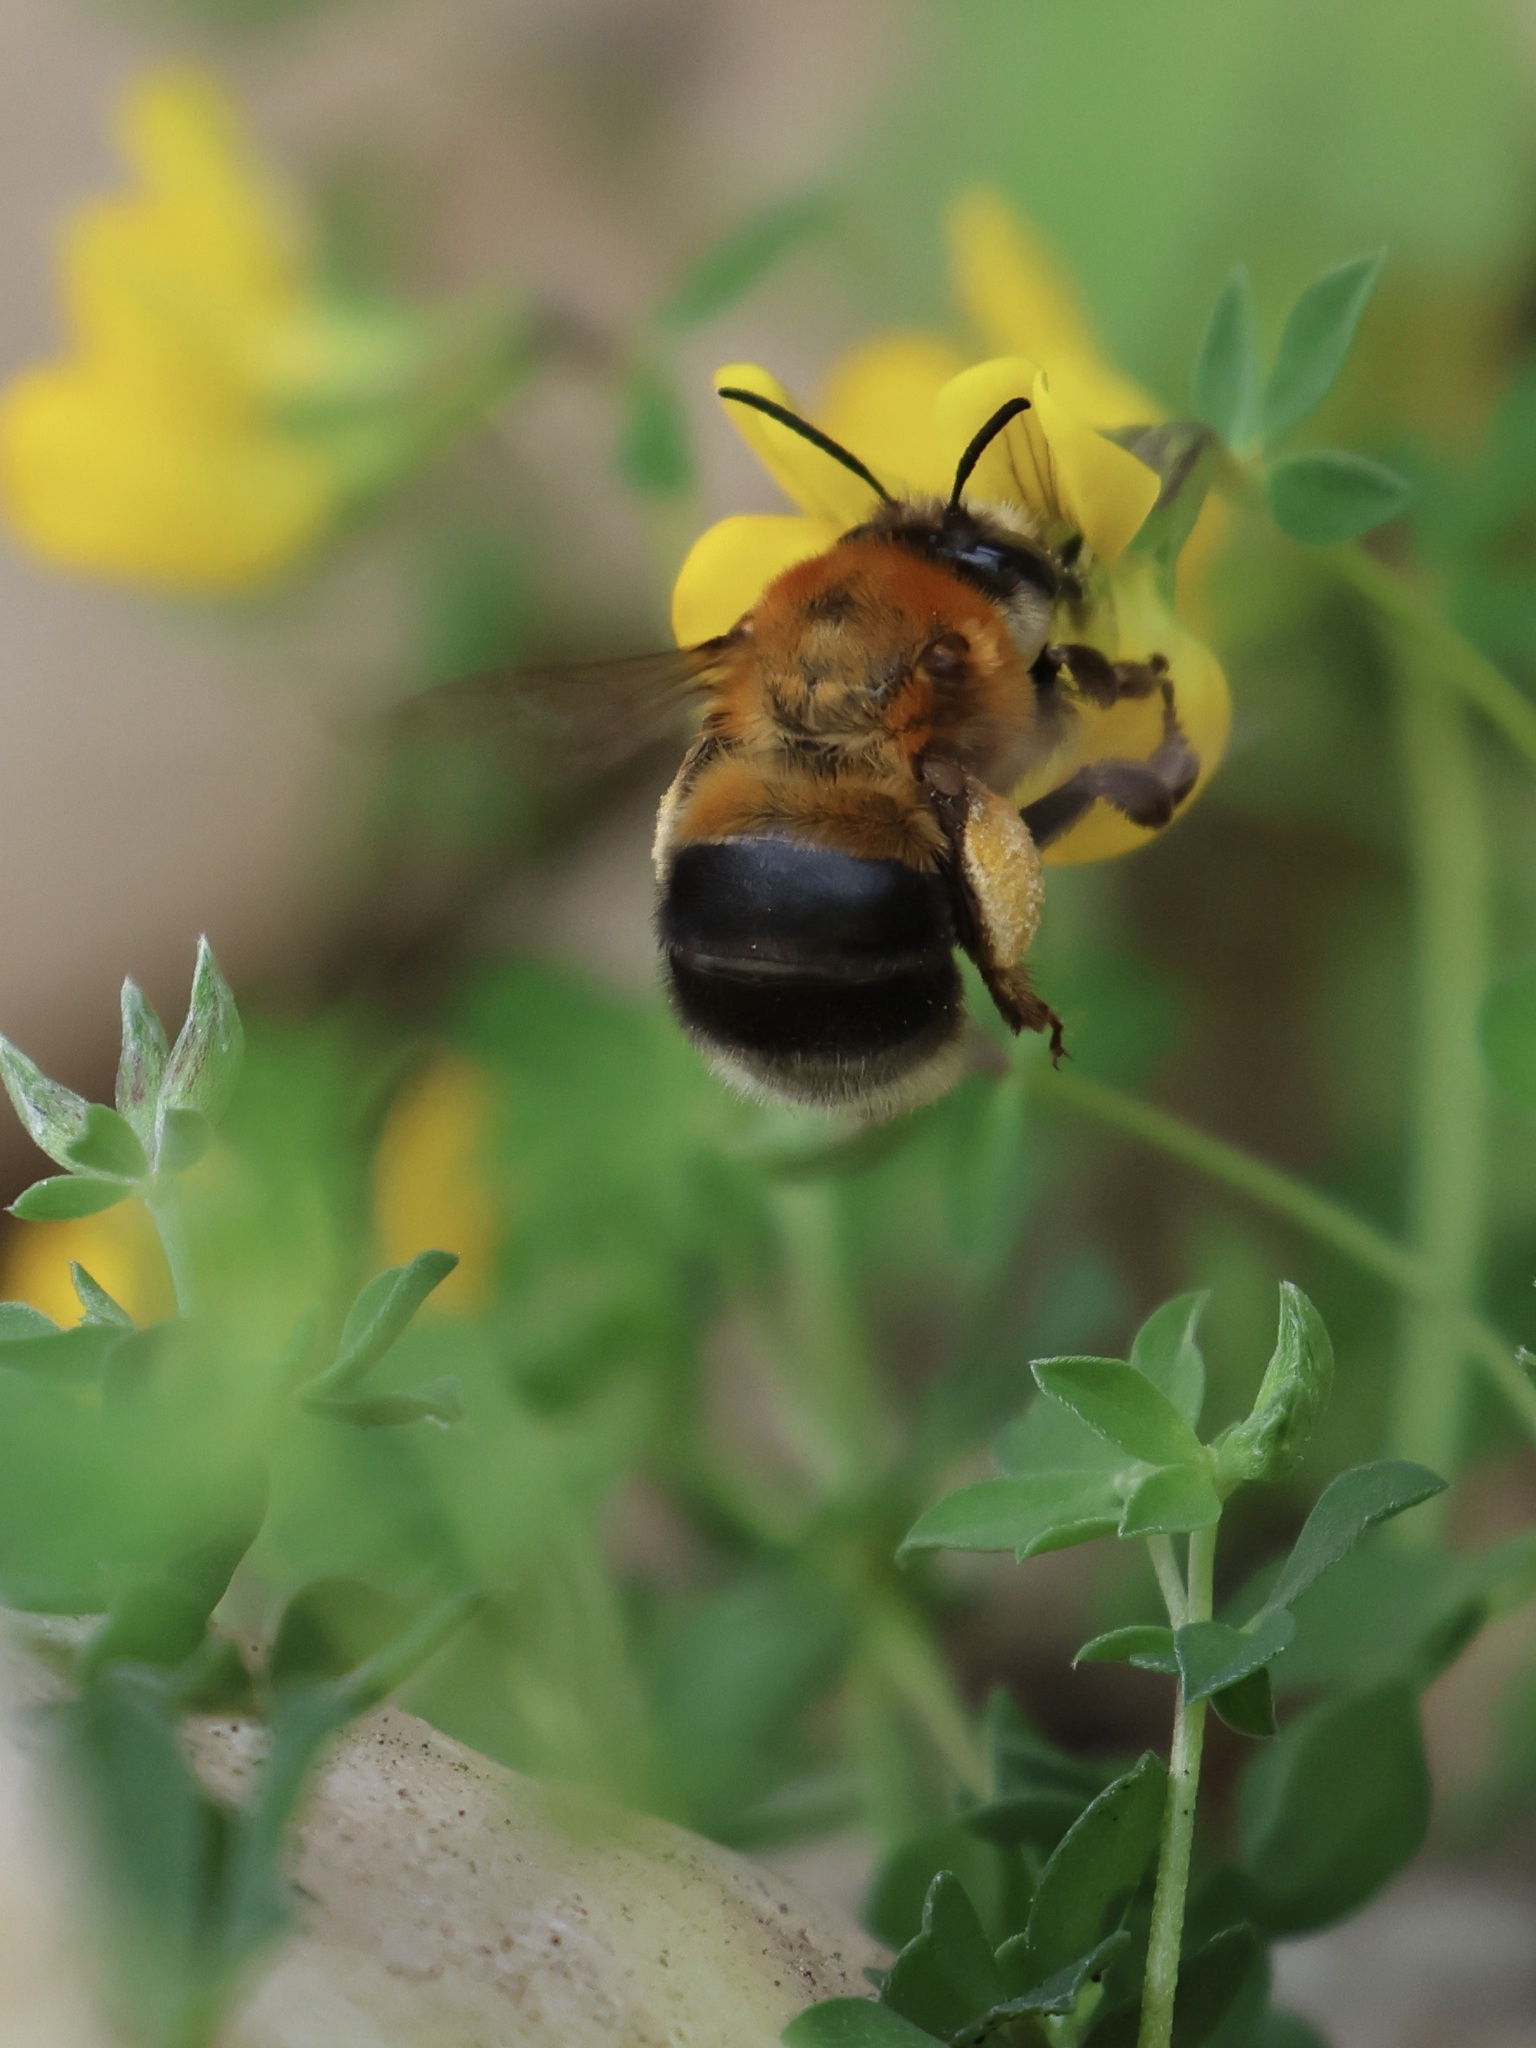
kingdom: Animalia
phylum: Arthropoda
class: Insecta
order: Hymenoptera
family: Apidae
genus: Habropoda
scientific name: Habropoda tarsata
